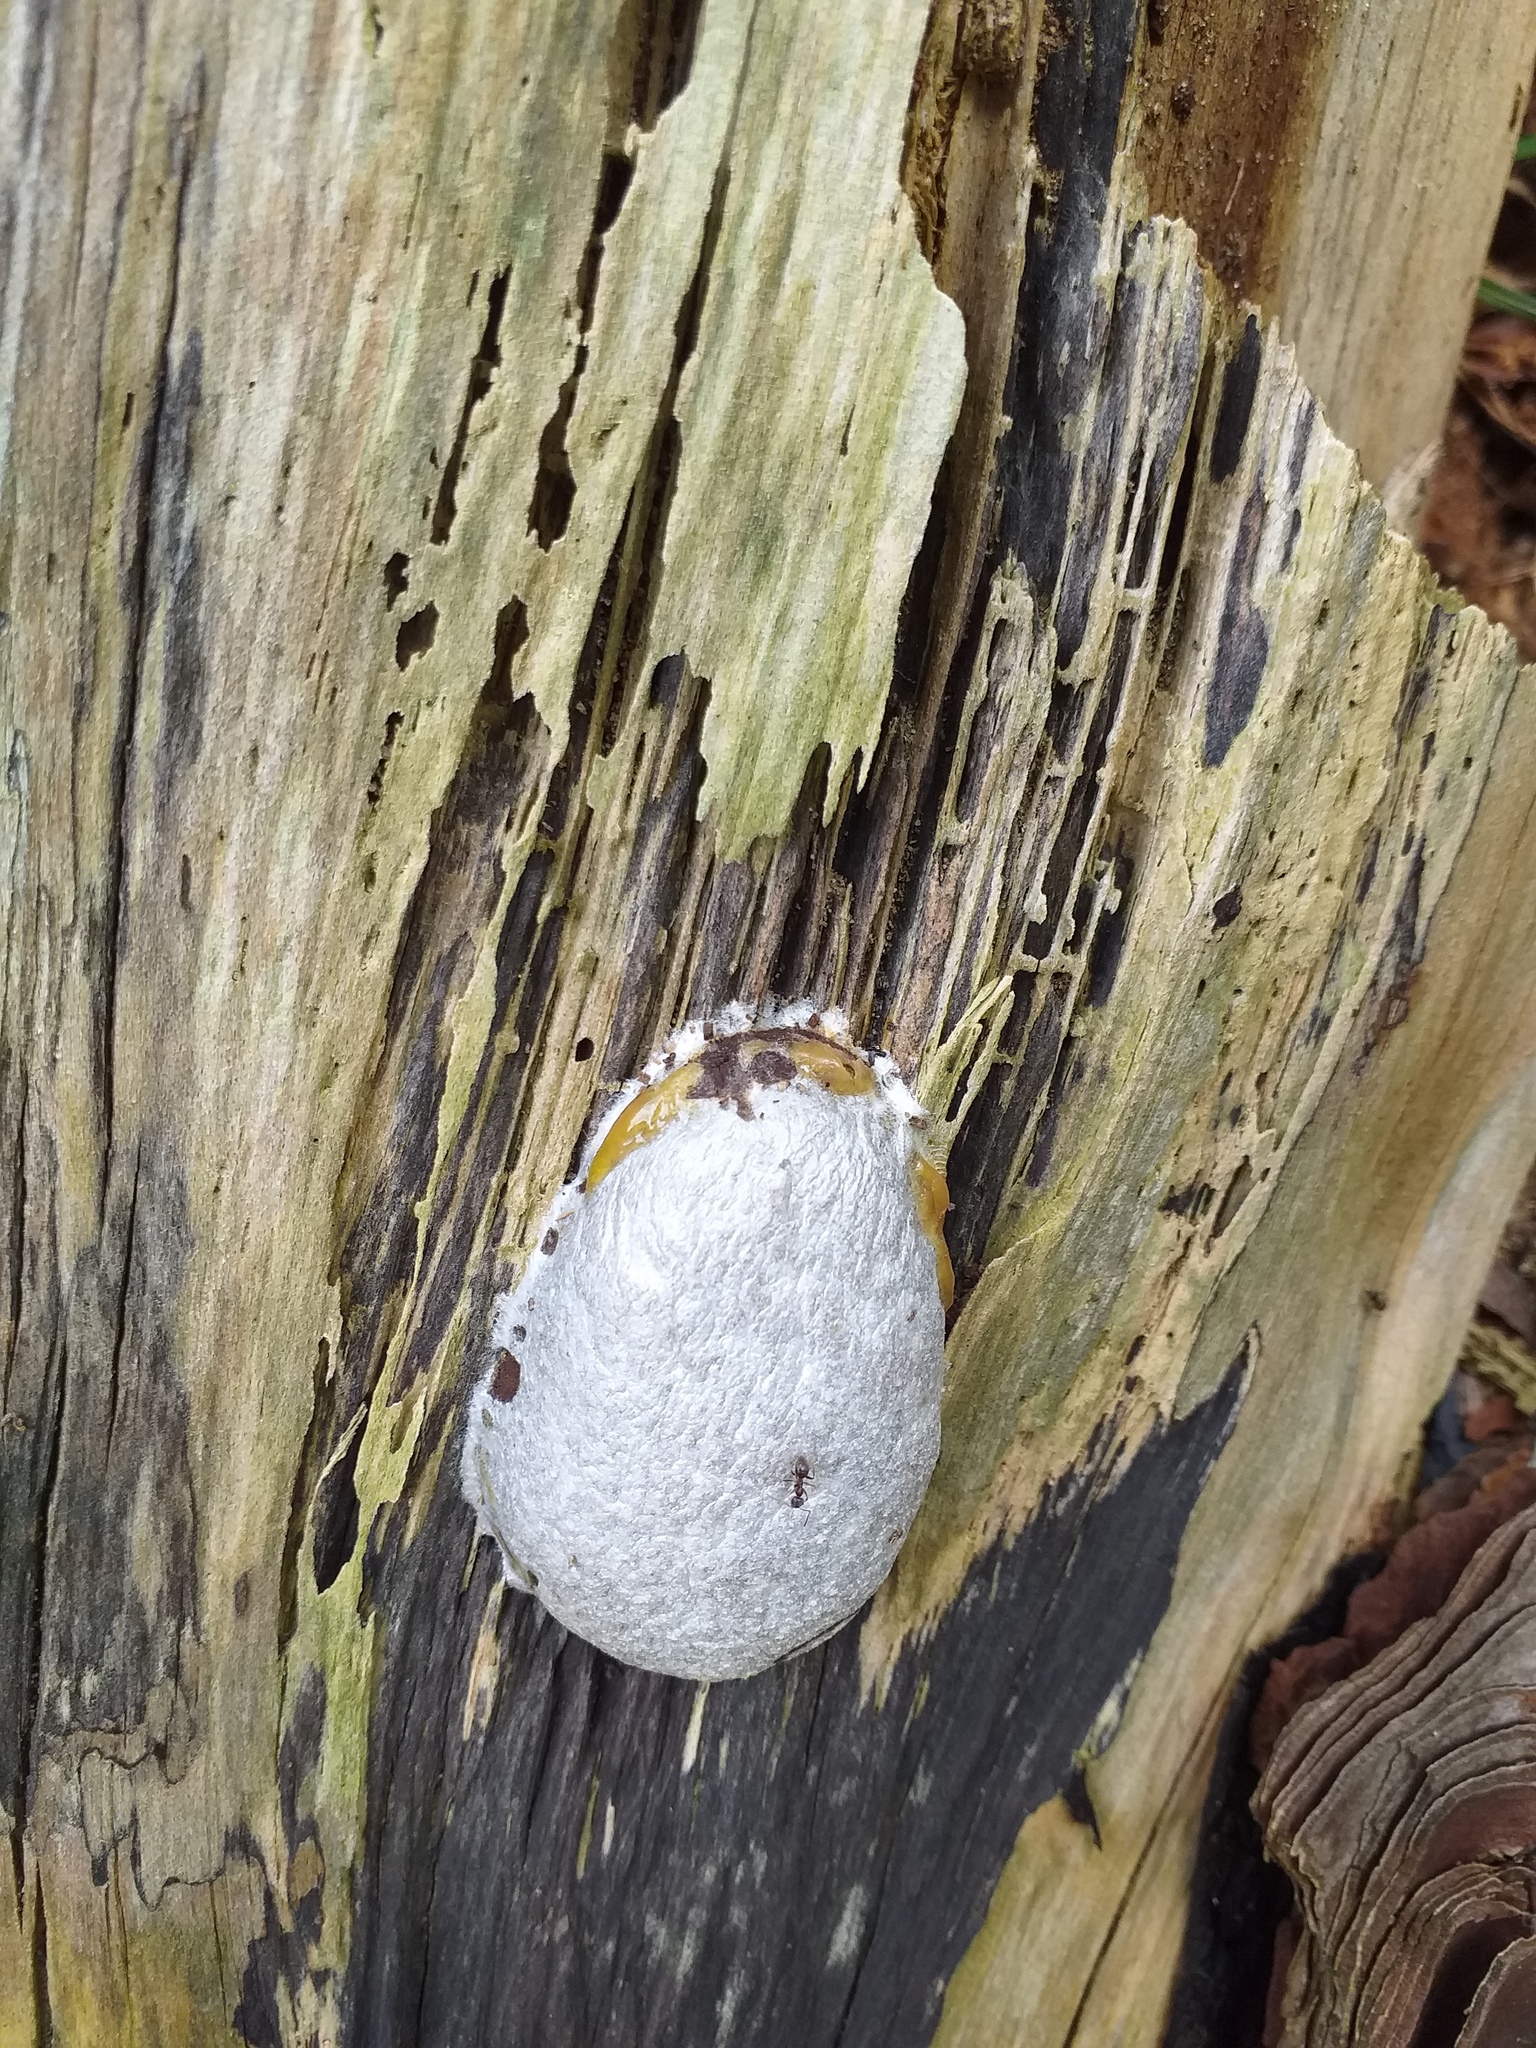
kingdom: Protozoa
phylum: Mycetozoa
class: Myxomycetes
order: Cribrariales
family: Tubiferaceae
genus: Reticularia
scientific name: Reticularia lycoperdon
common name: False puffball
